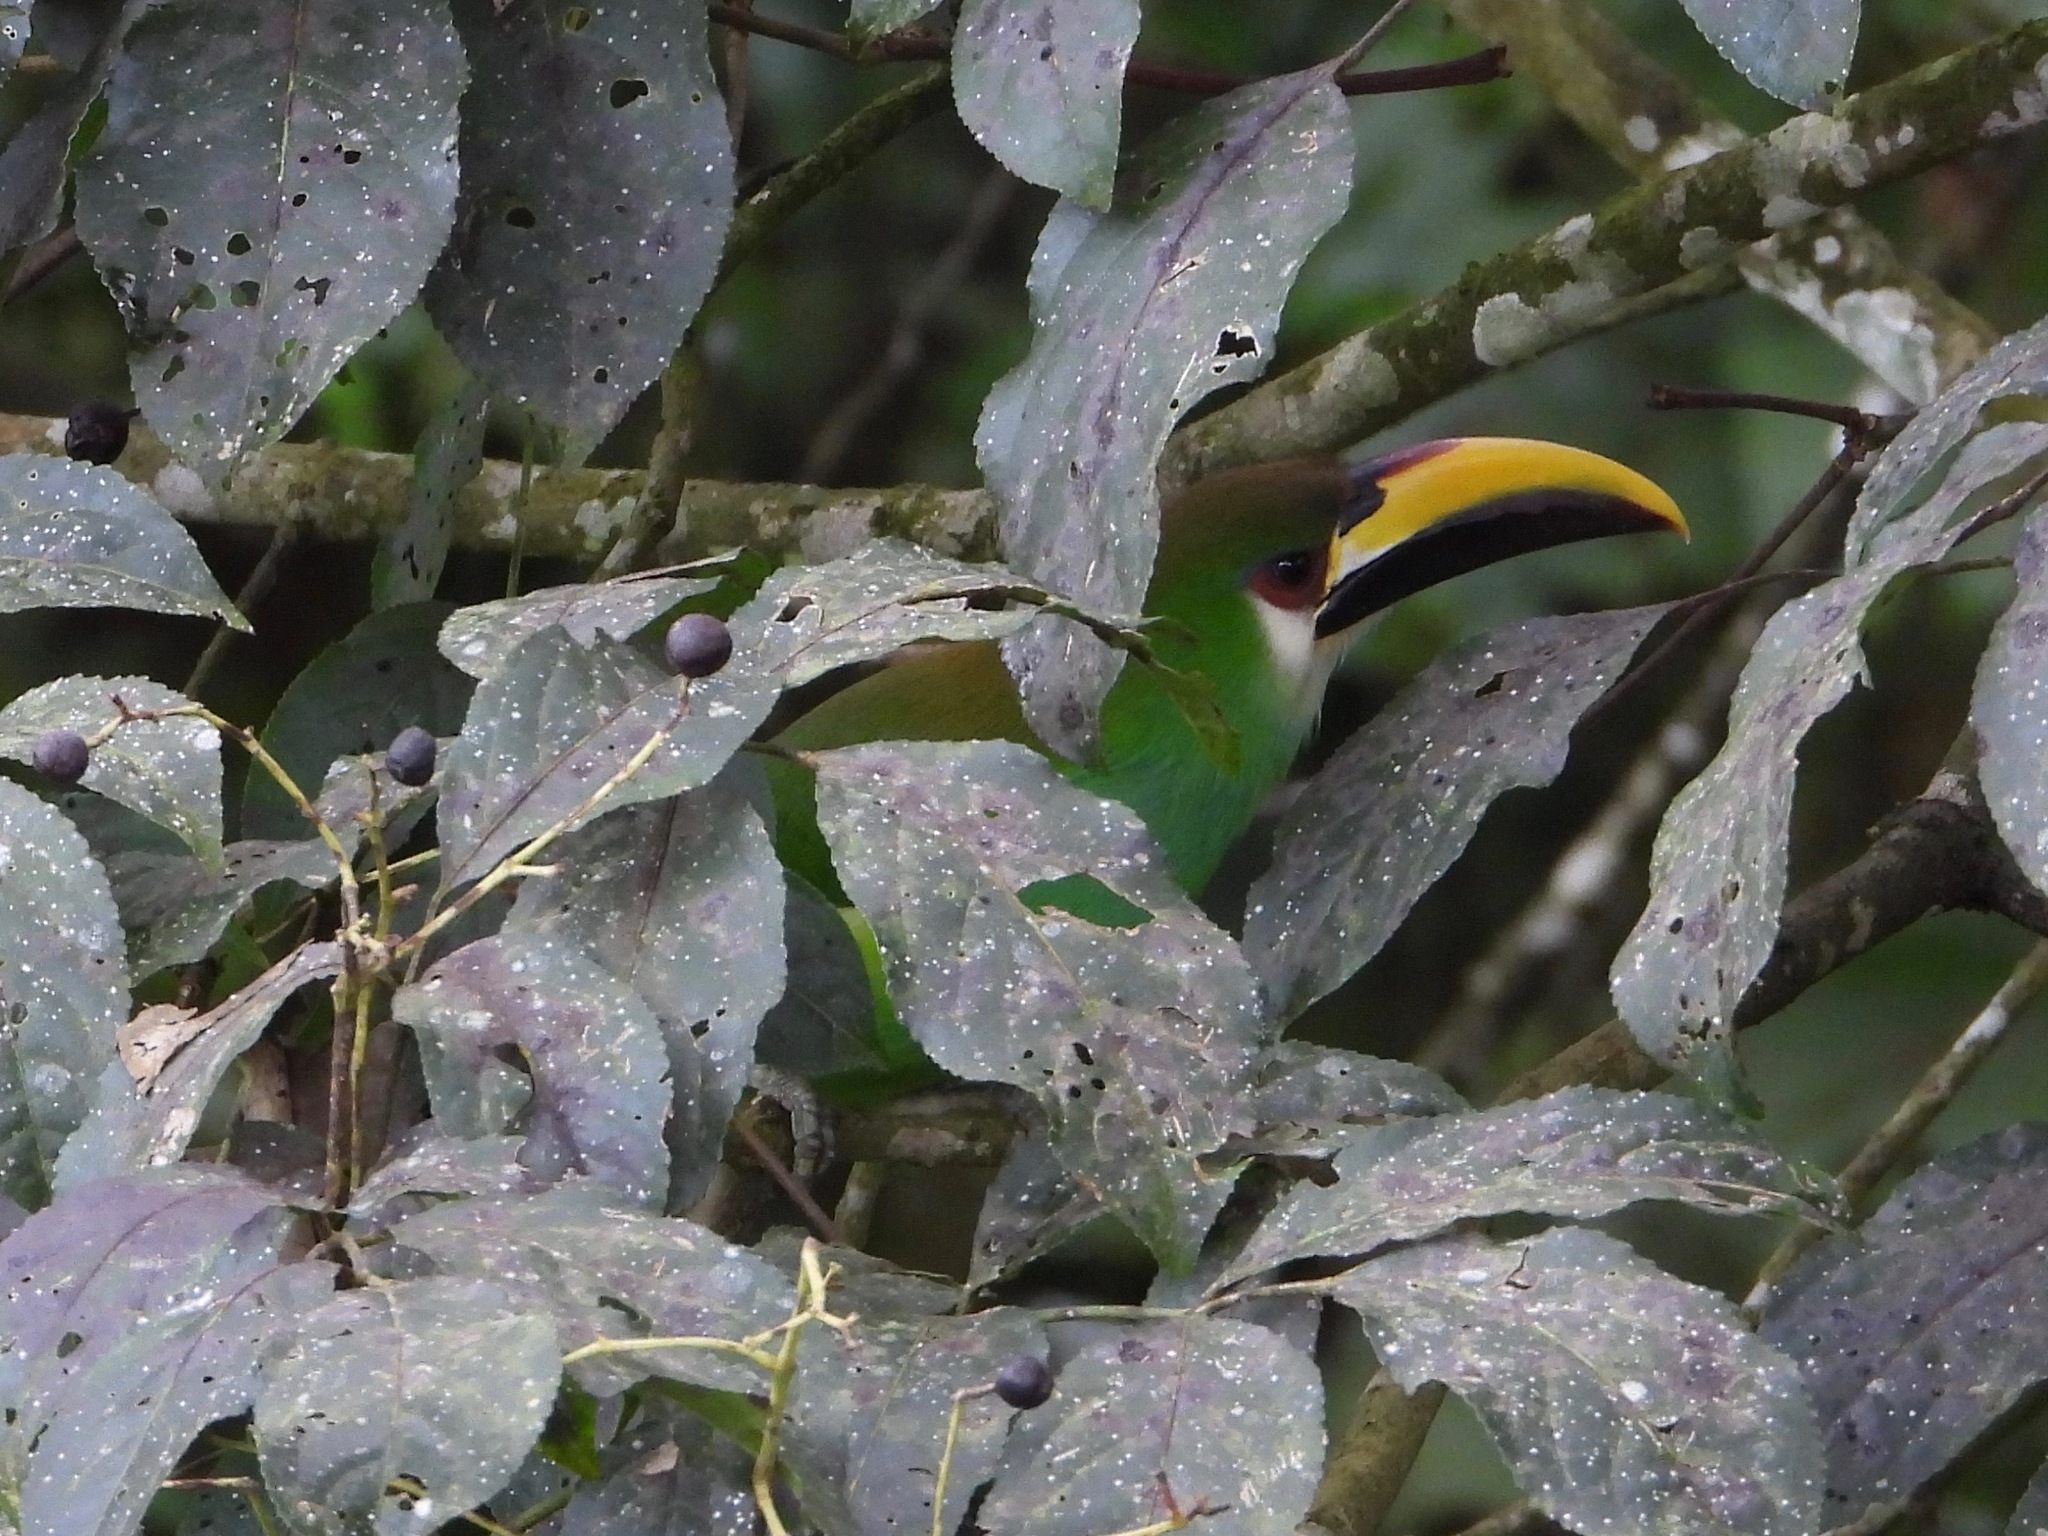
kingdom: Animalia
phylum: Chordata
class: Aves
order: Piciformes
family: Ramphastidae
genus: Aulacorhynchus
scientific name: Aulacorhynchus prasinus
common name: Emerald toucanet
